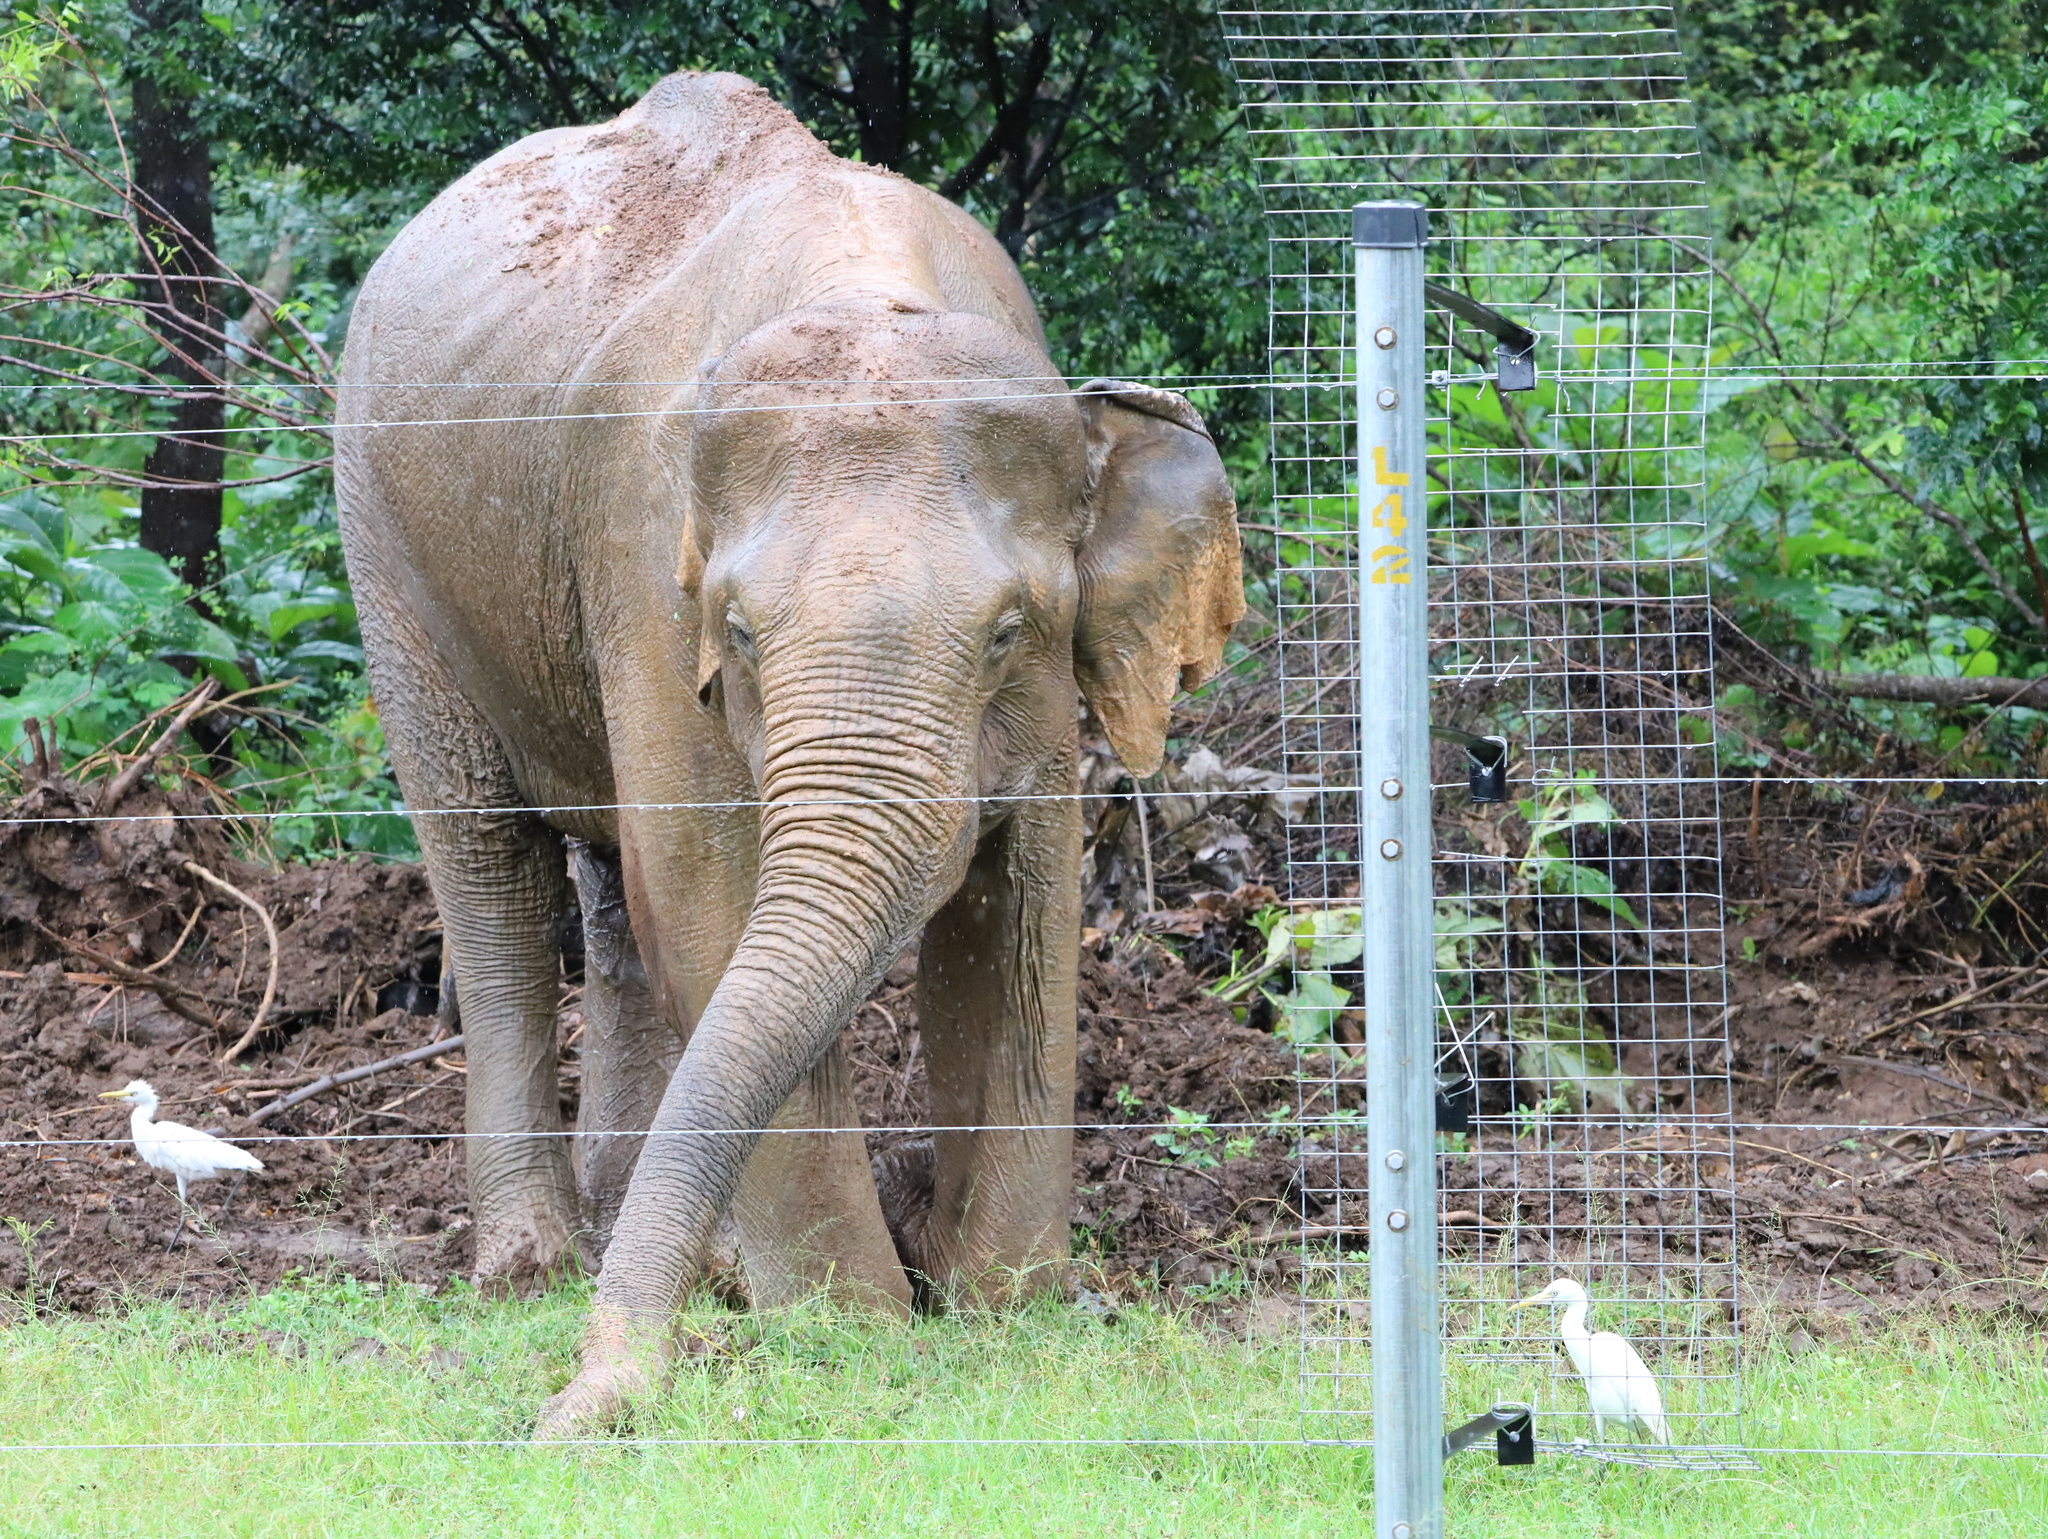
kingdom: Animalia
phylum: Chordata
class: Mammalia
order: Proboscidea
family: Elephantidae
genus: Elephas
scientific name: Elephas maximus
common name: Asian elephant
